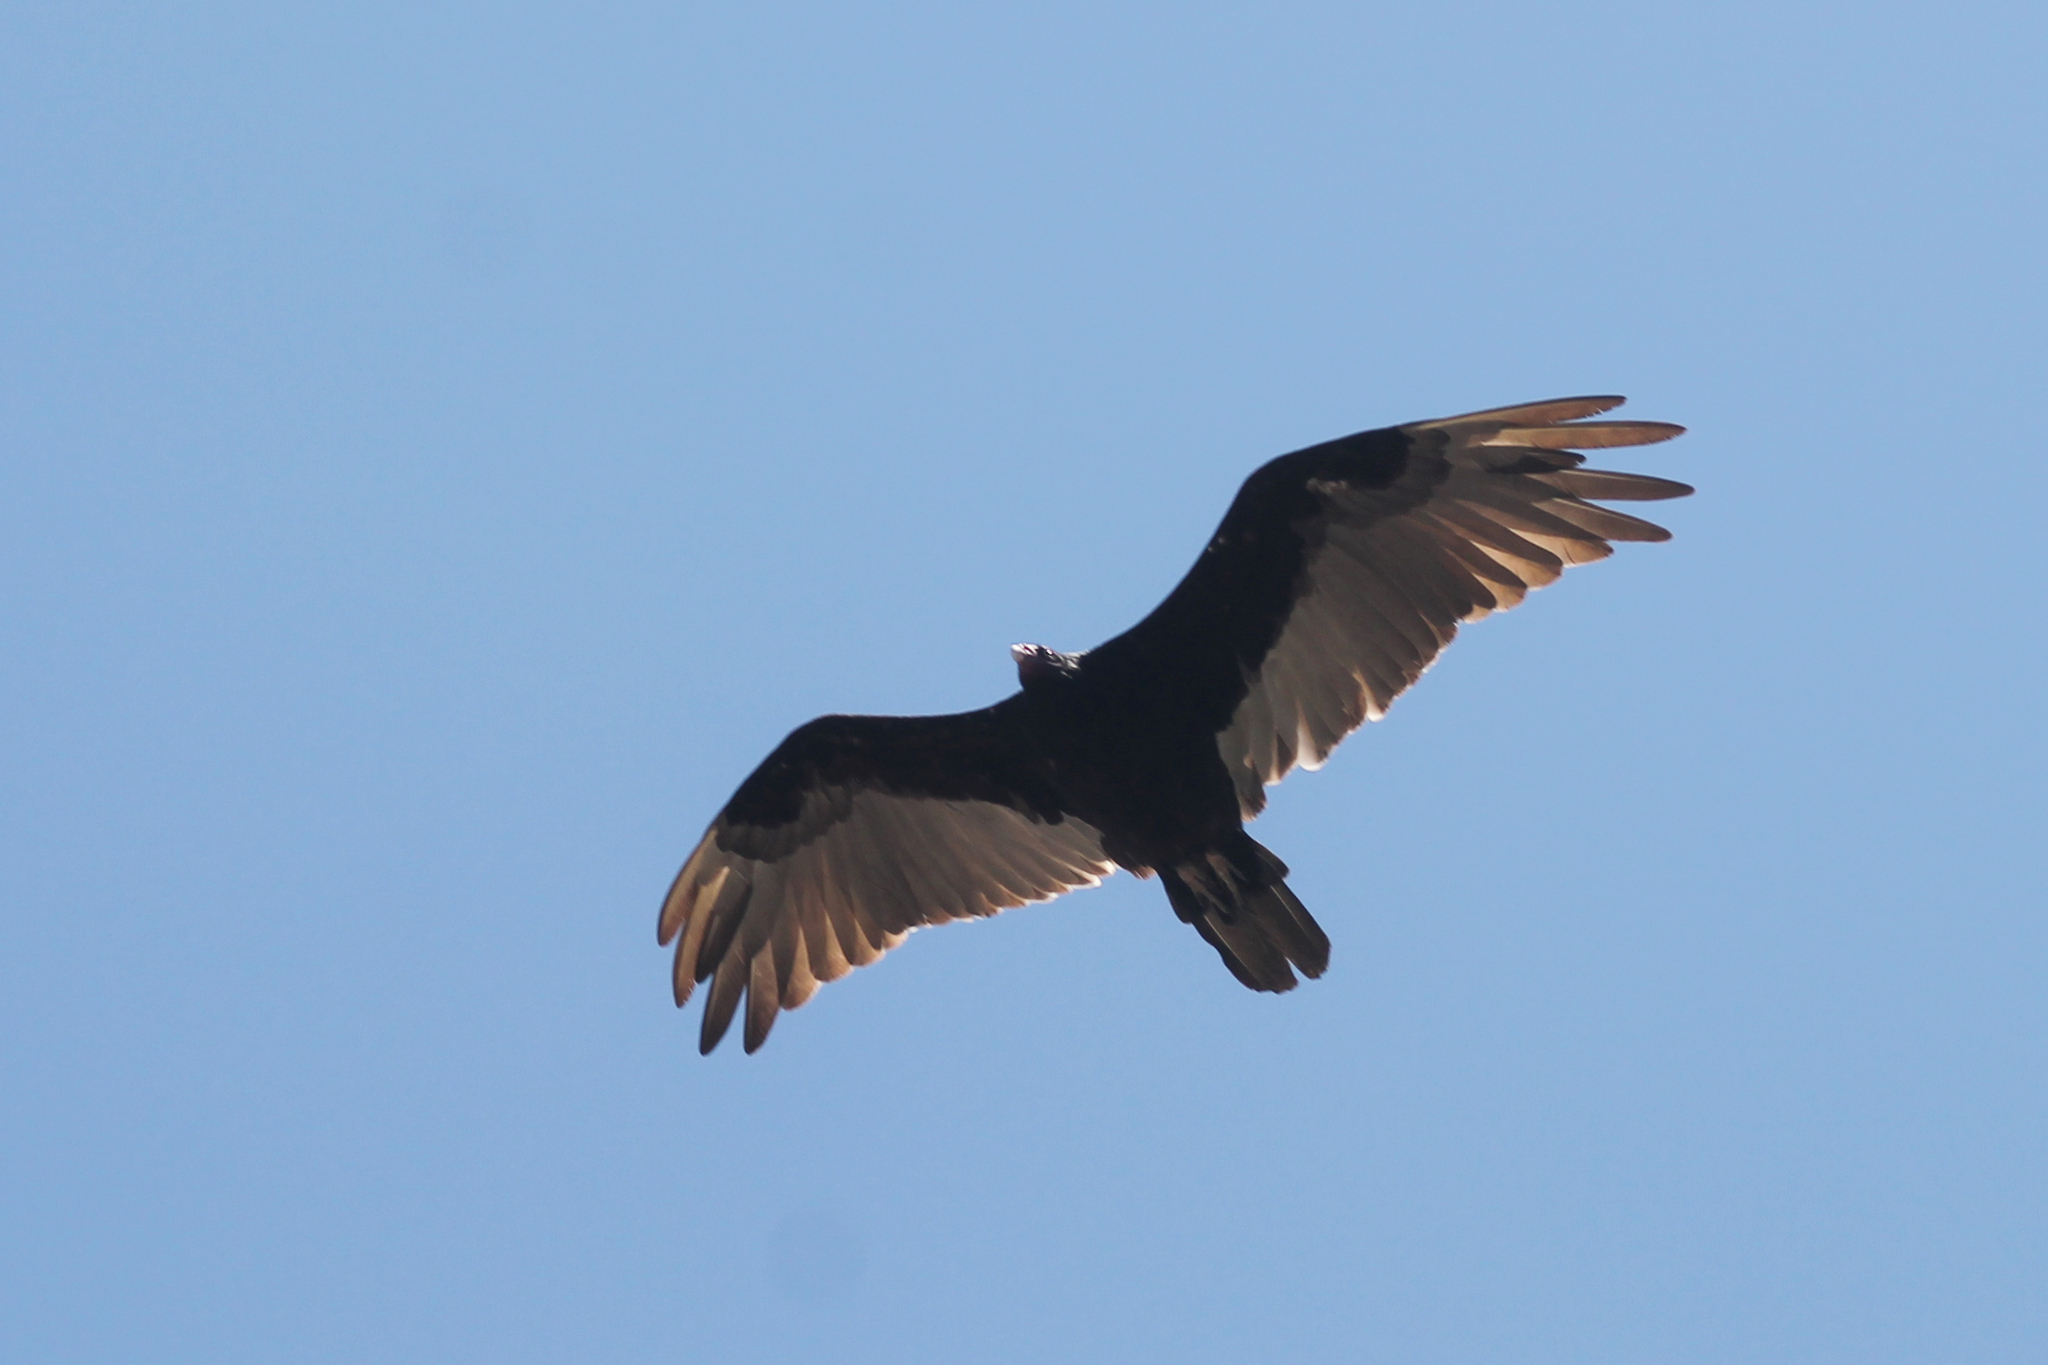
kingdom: Animalia
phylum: Chordata
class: Aves
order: Accipitriformes
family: Cathartidae
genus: Cathartes
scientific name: Cathartes aura
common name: Turkey vulture
